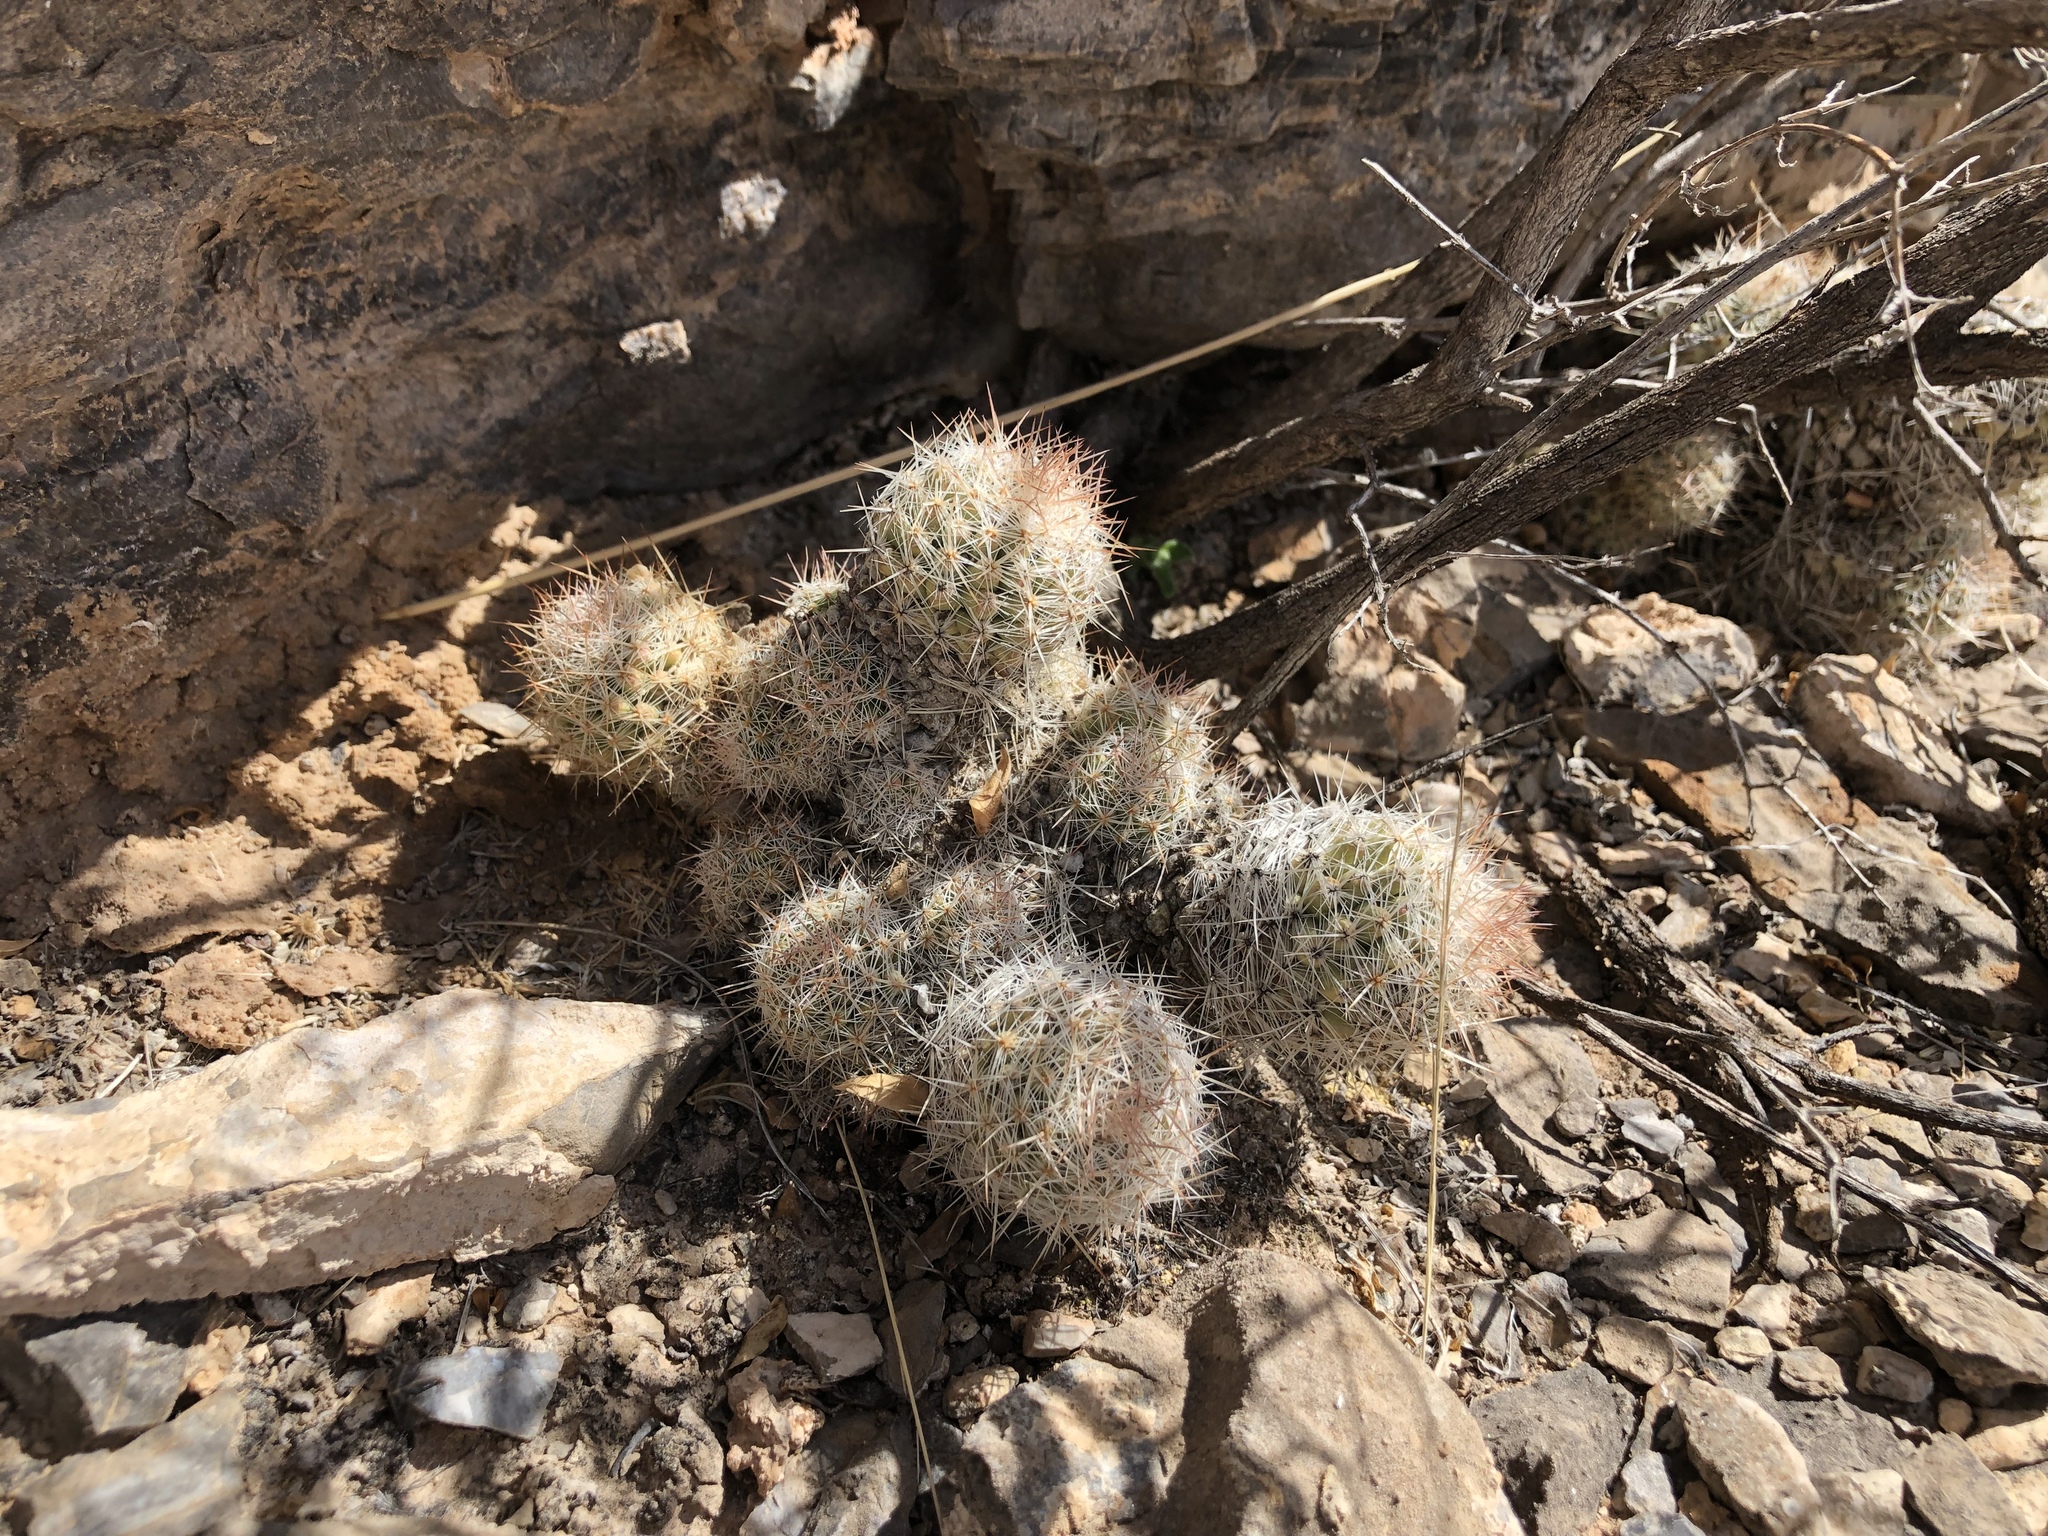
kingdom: Plantae
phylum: Tracheophyta
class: Magnoliopsida
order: Caryophyllales
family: Cactaceae
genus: Pelecyphora
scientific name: Pelecyphora tuberculosa
